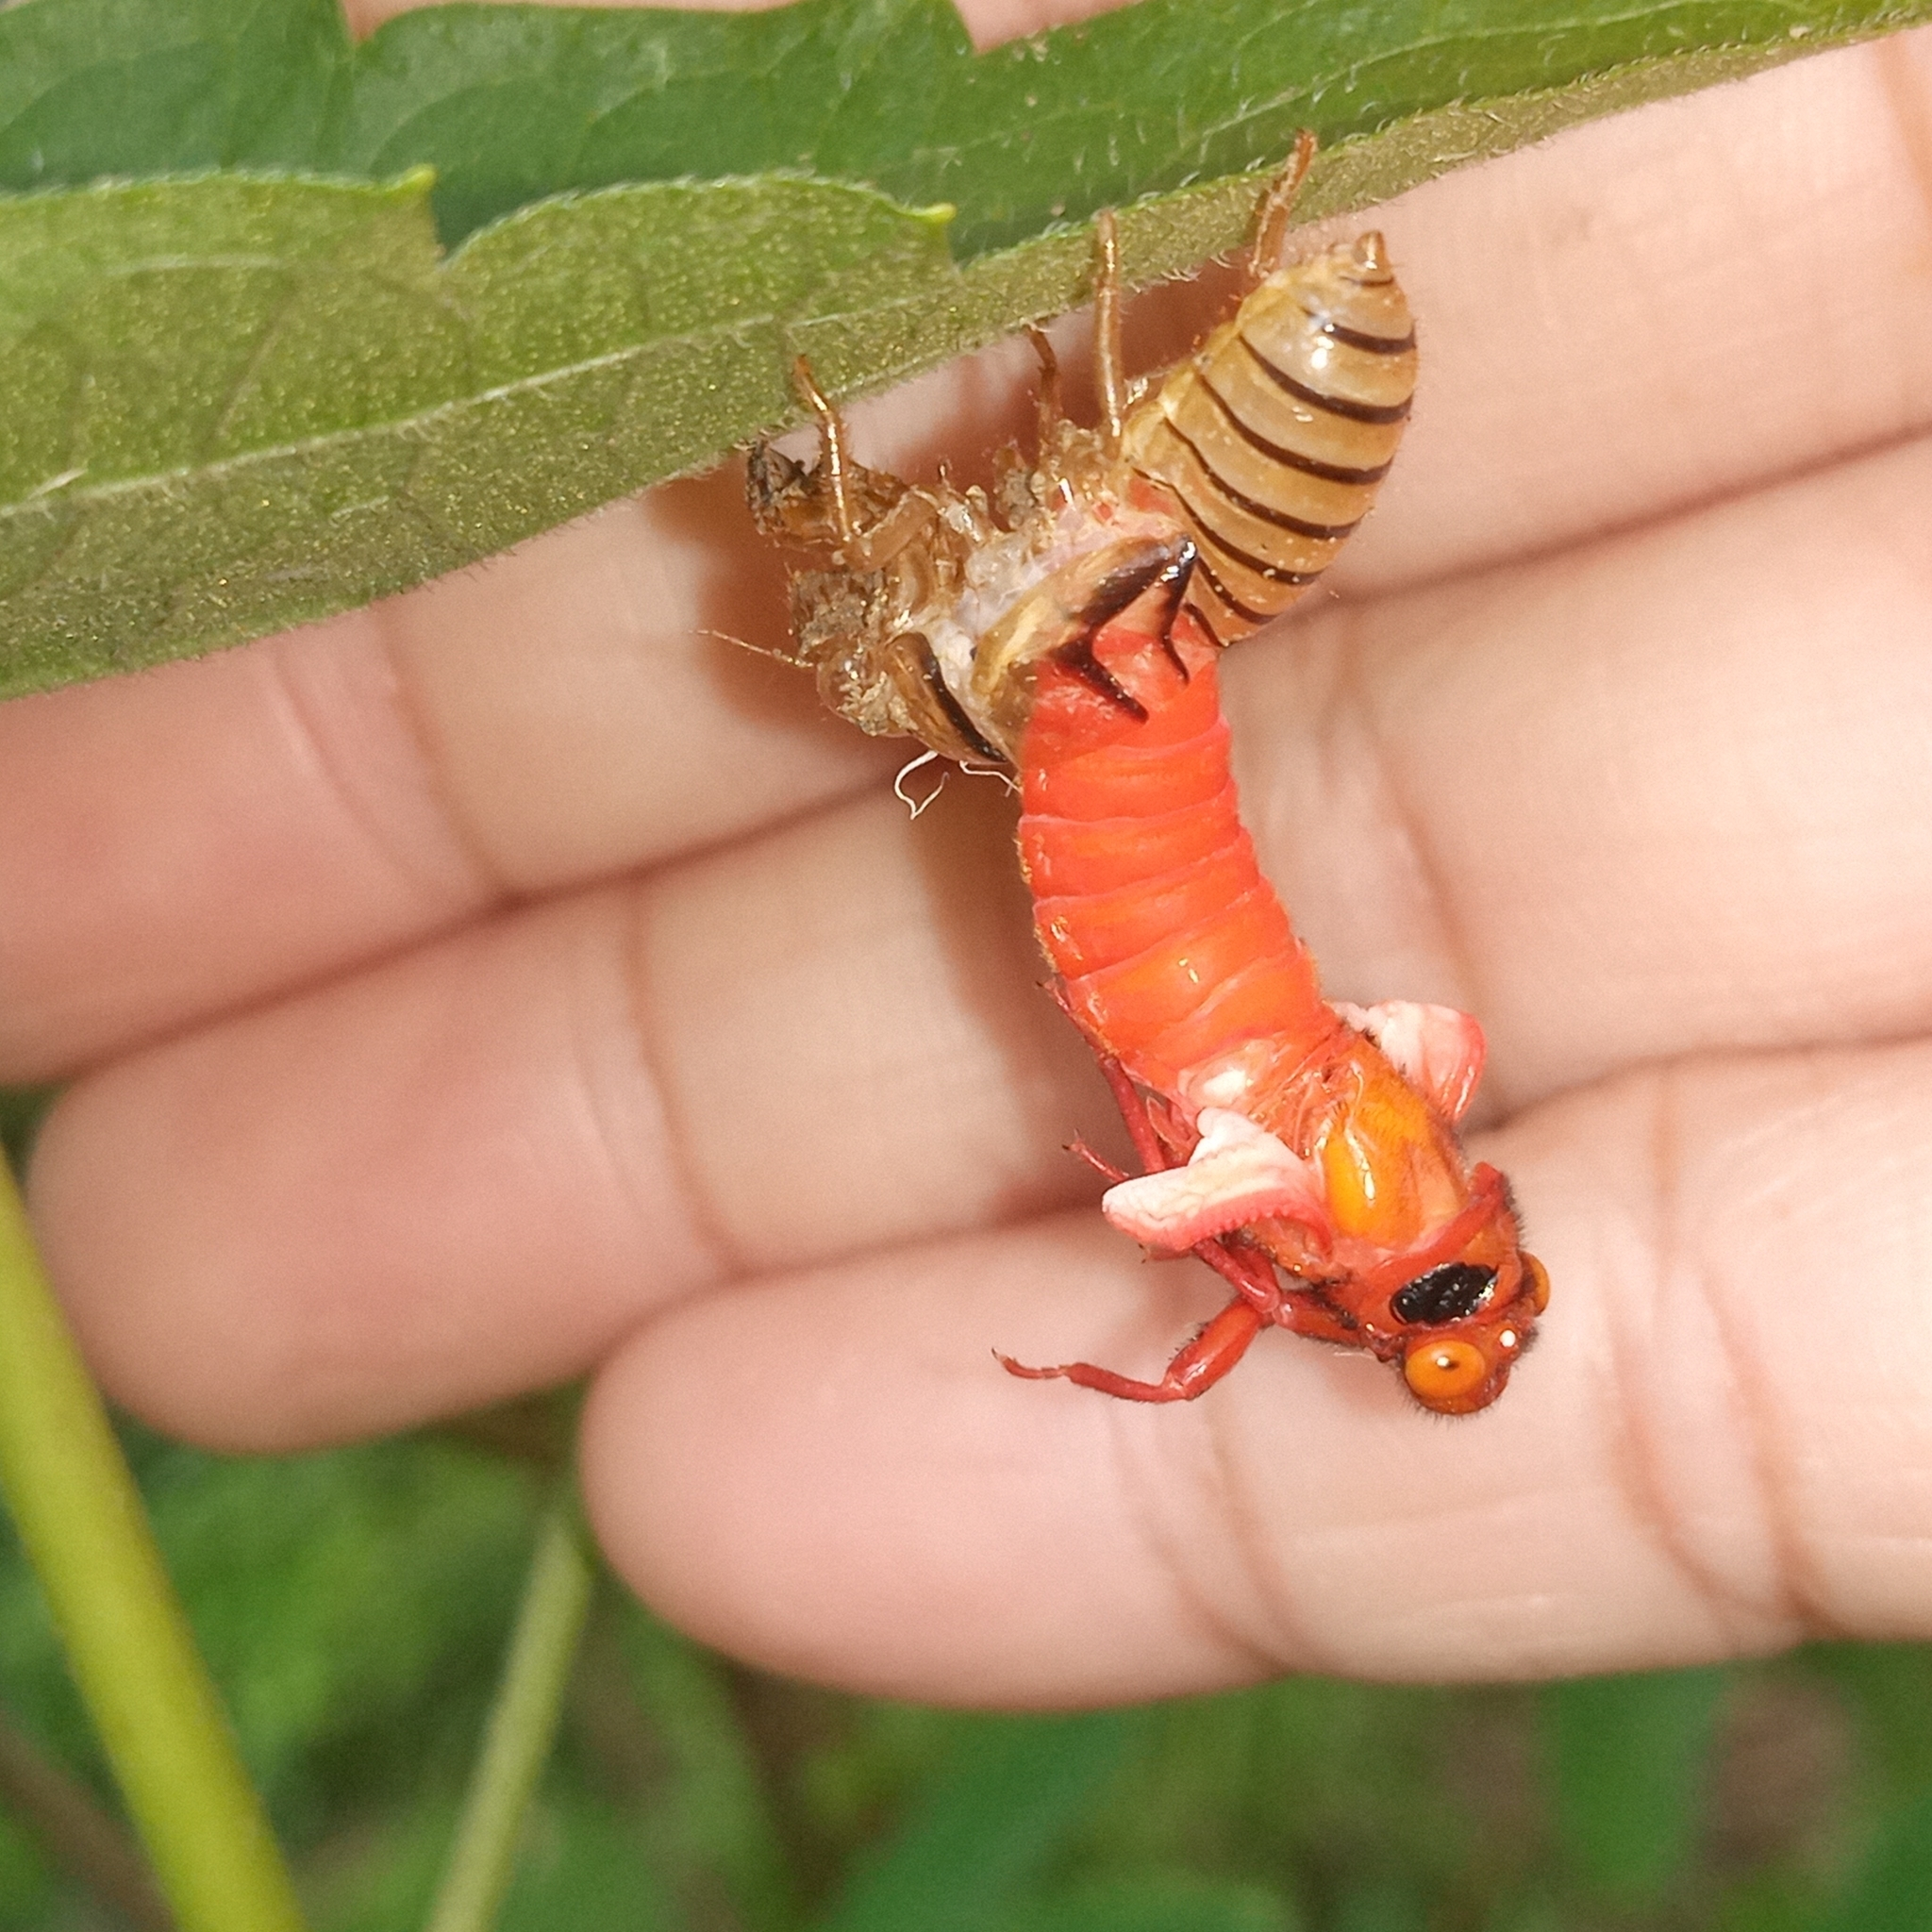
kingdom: Animalia
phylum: Arthropoda
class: Insecta
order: Hemiptera
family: Cicadidae
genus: Huechys
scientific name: Huechys sanguinea
